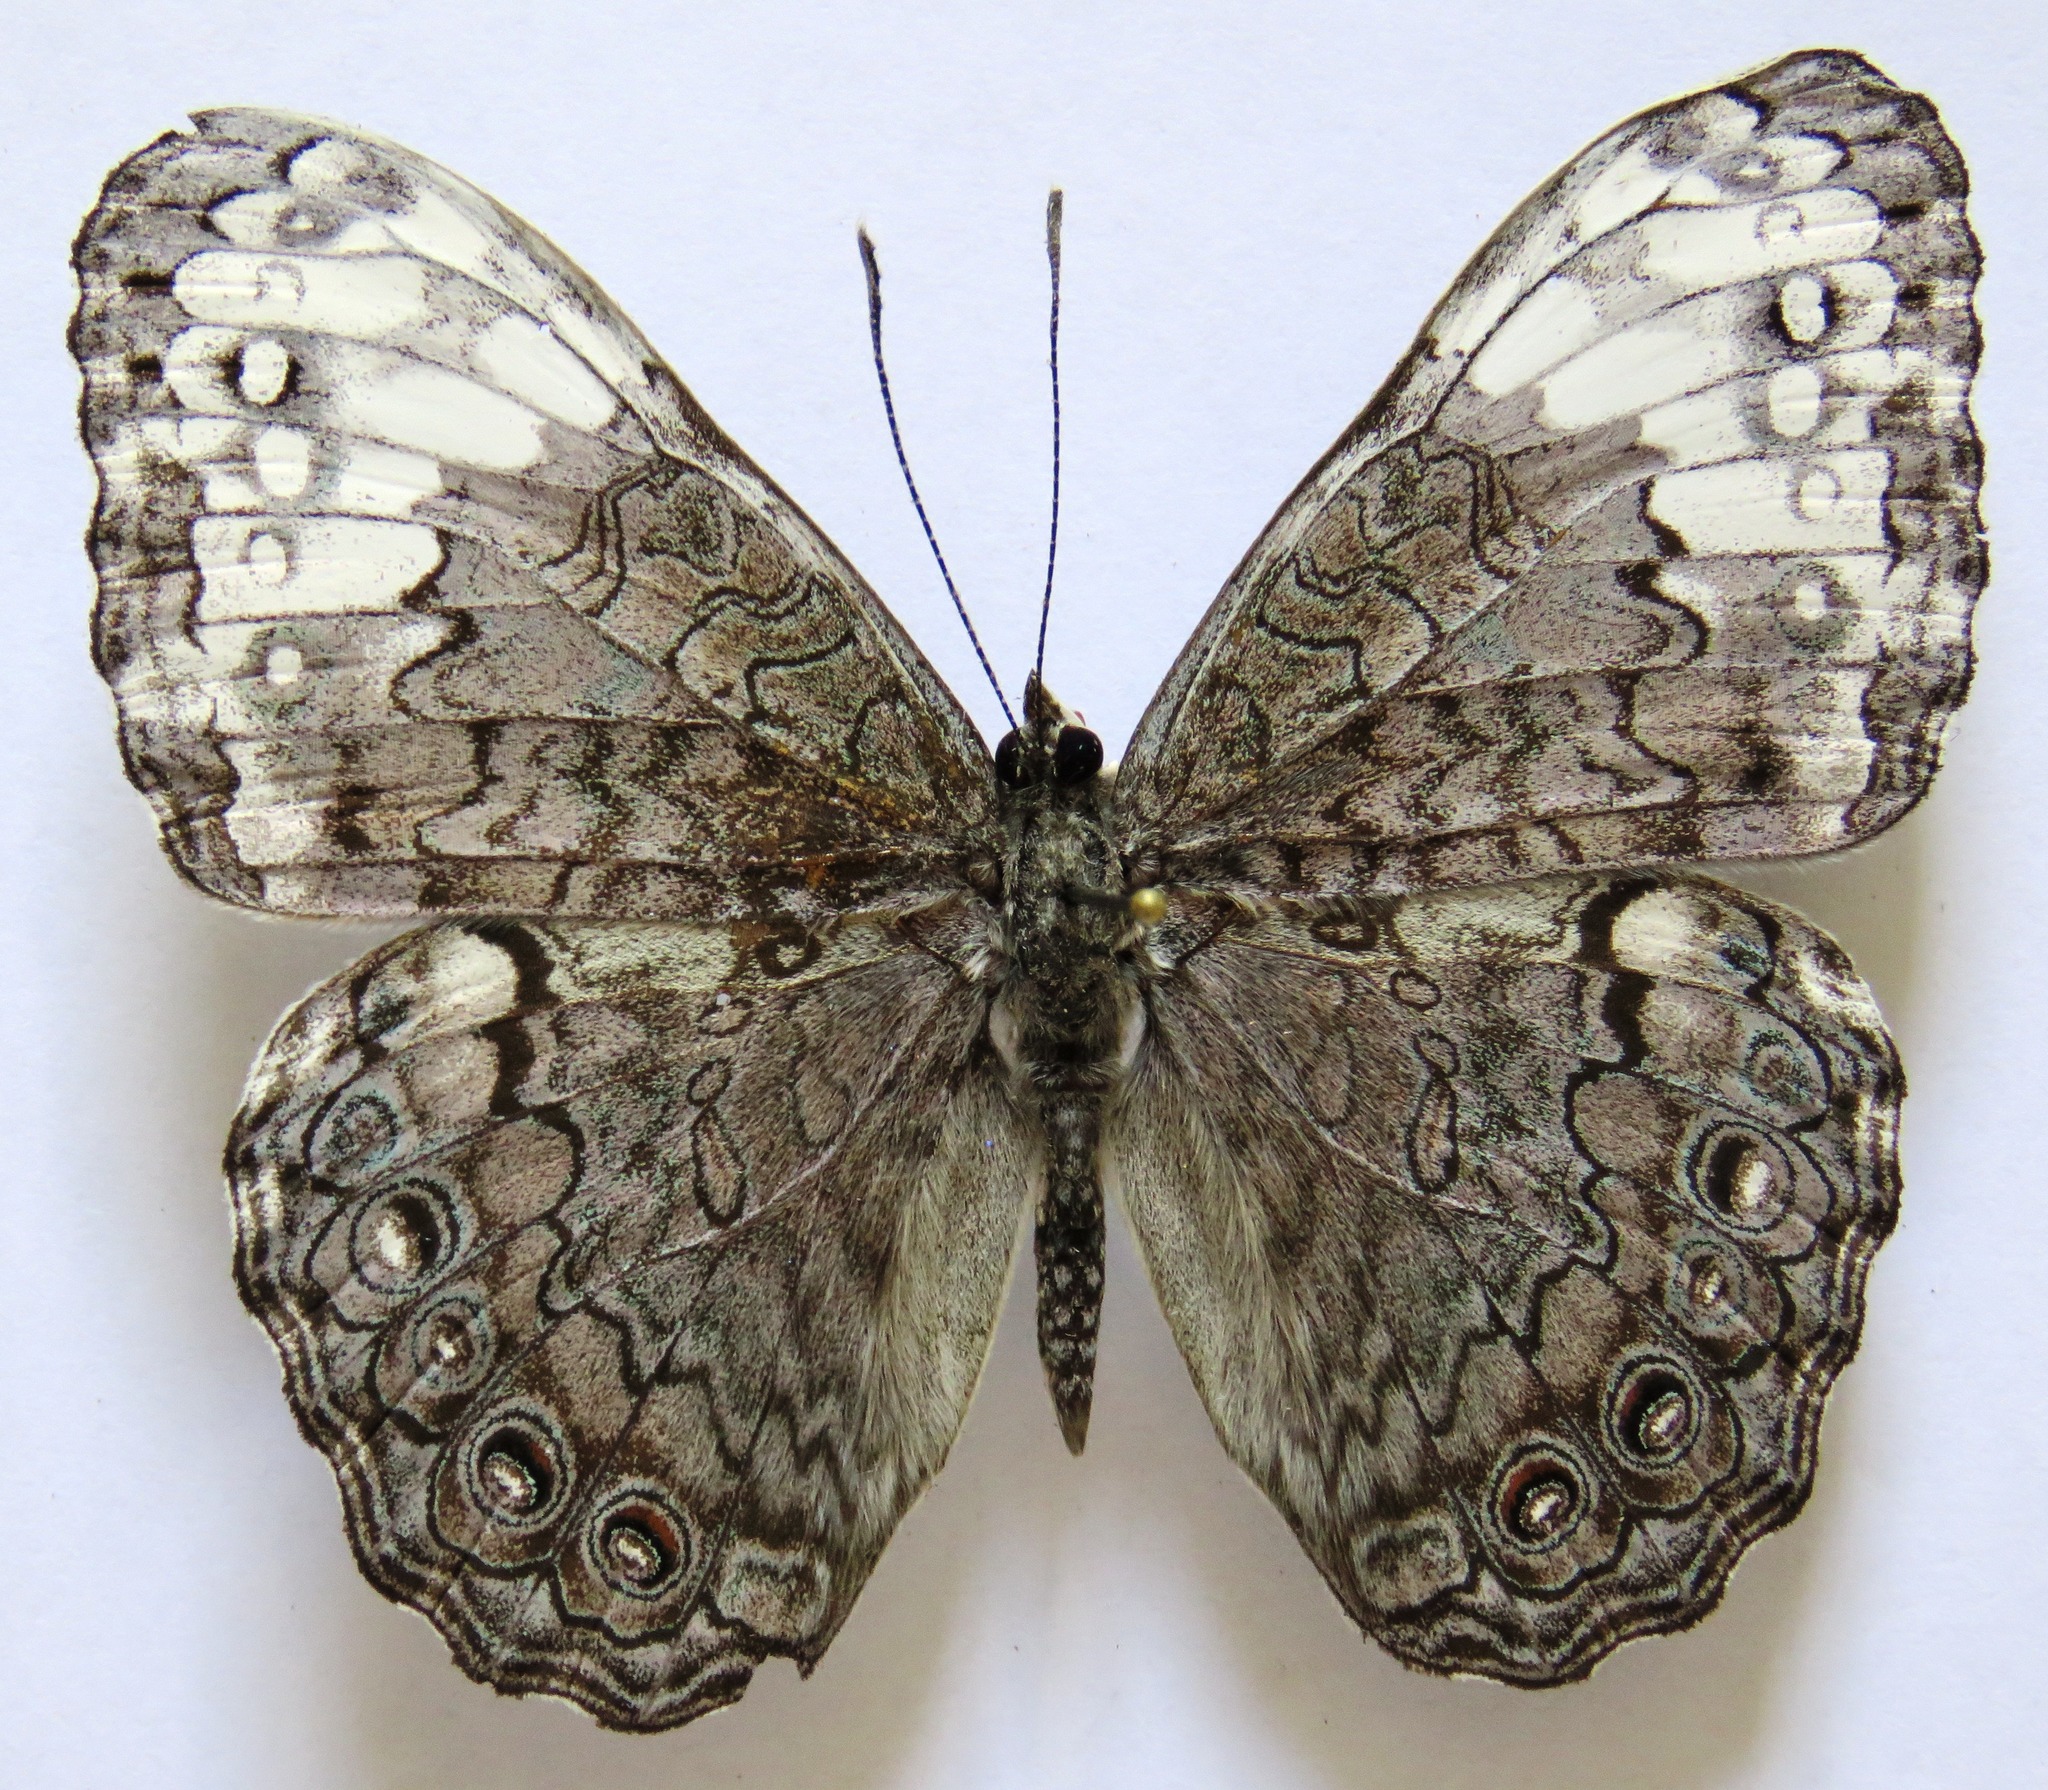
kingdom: Animalia
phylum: Arthropoda
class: Insecta
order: Lepidoptera
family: Nymphalidae
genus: Hamadryas
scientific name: Hamadryas glauconome
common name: Glaucous cracker
